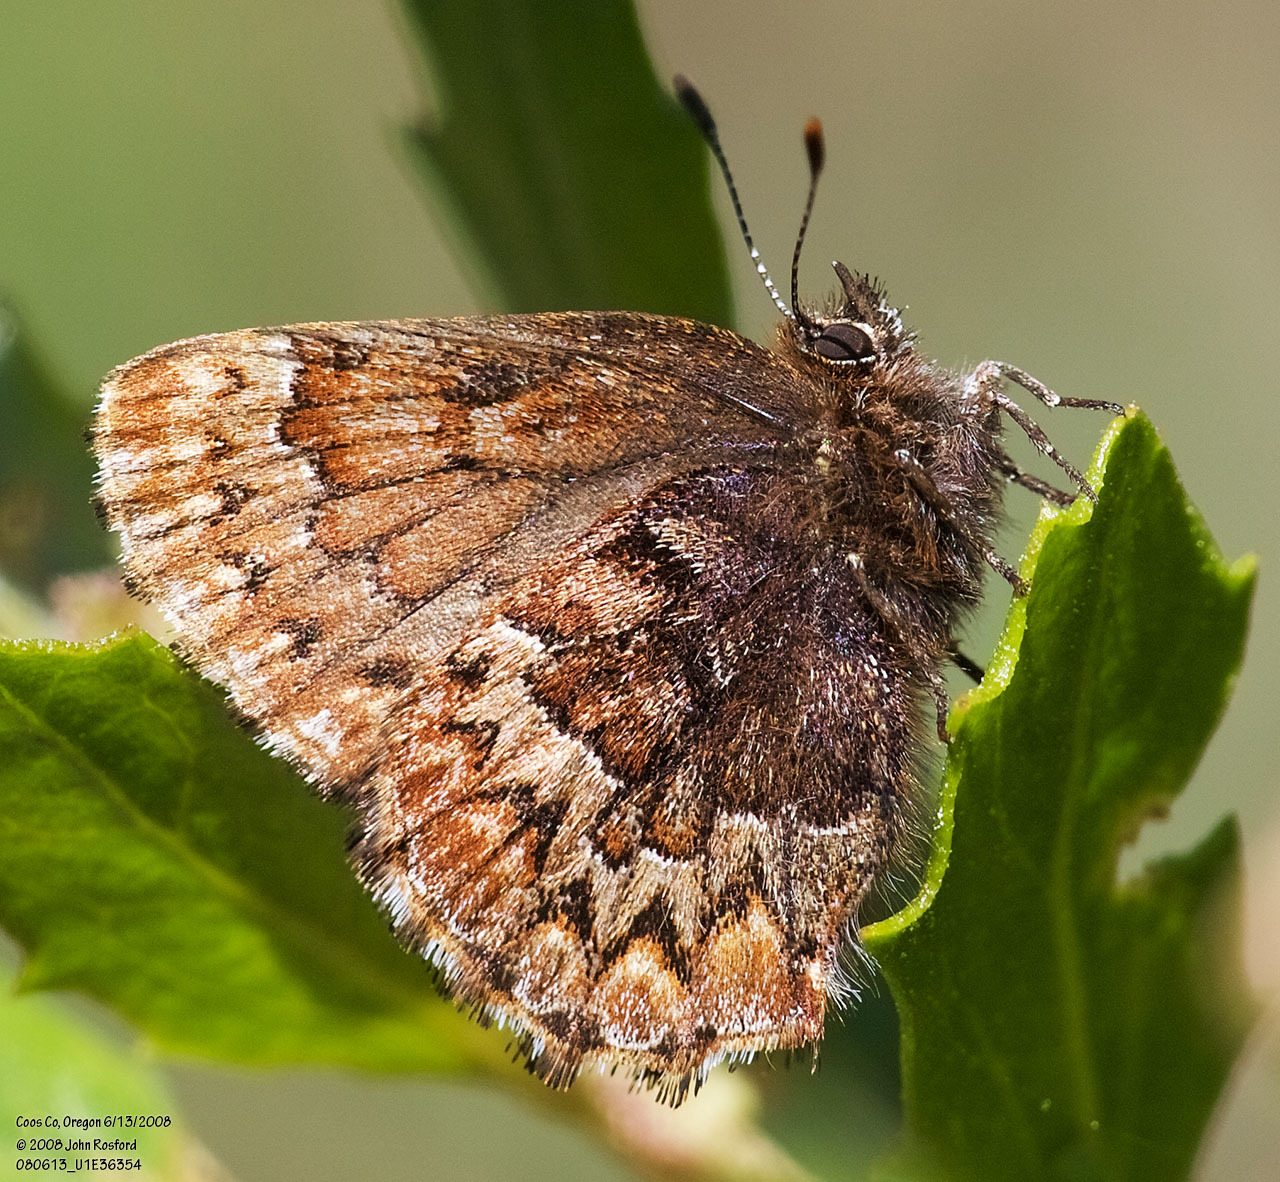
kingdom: Animalia
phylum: Arthropoda
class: Insecta
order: Lepidoptera
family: Lycaenidae
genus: Incisalia
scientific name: Incisalia eryphon
